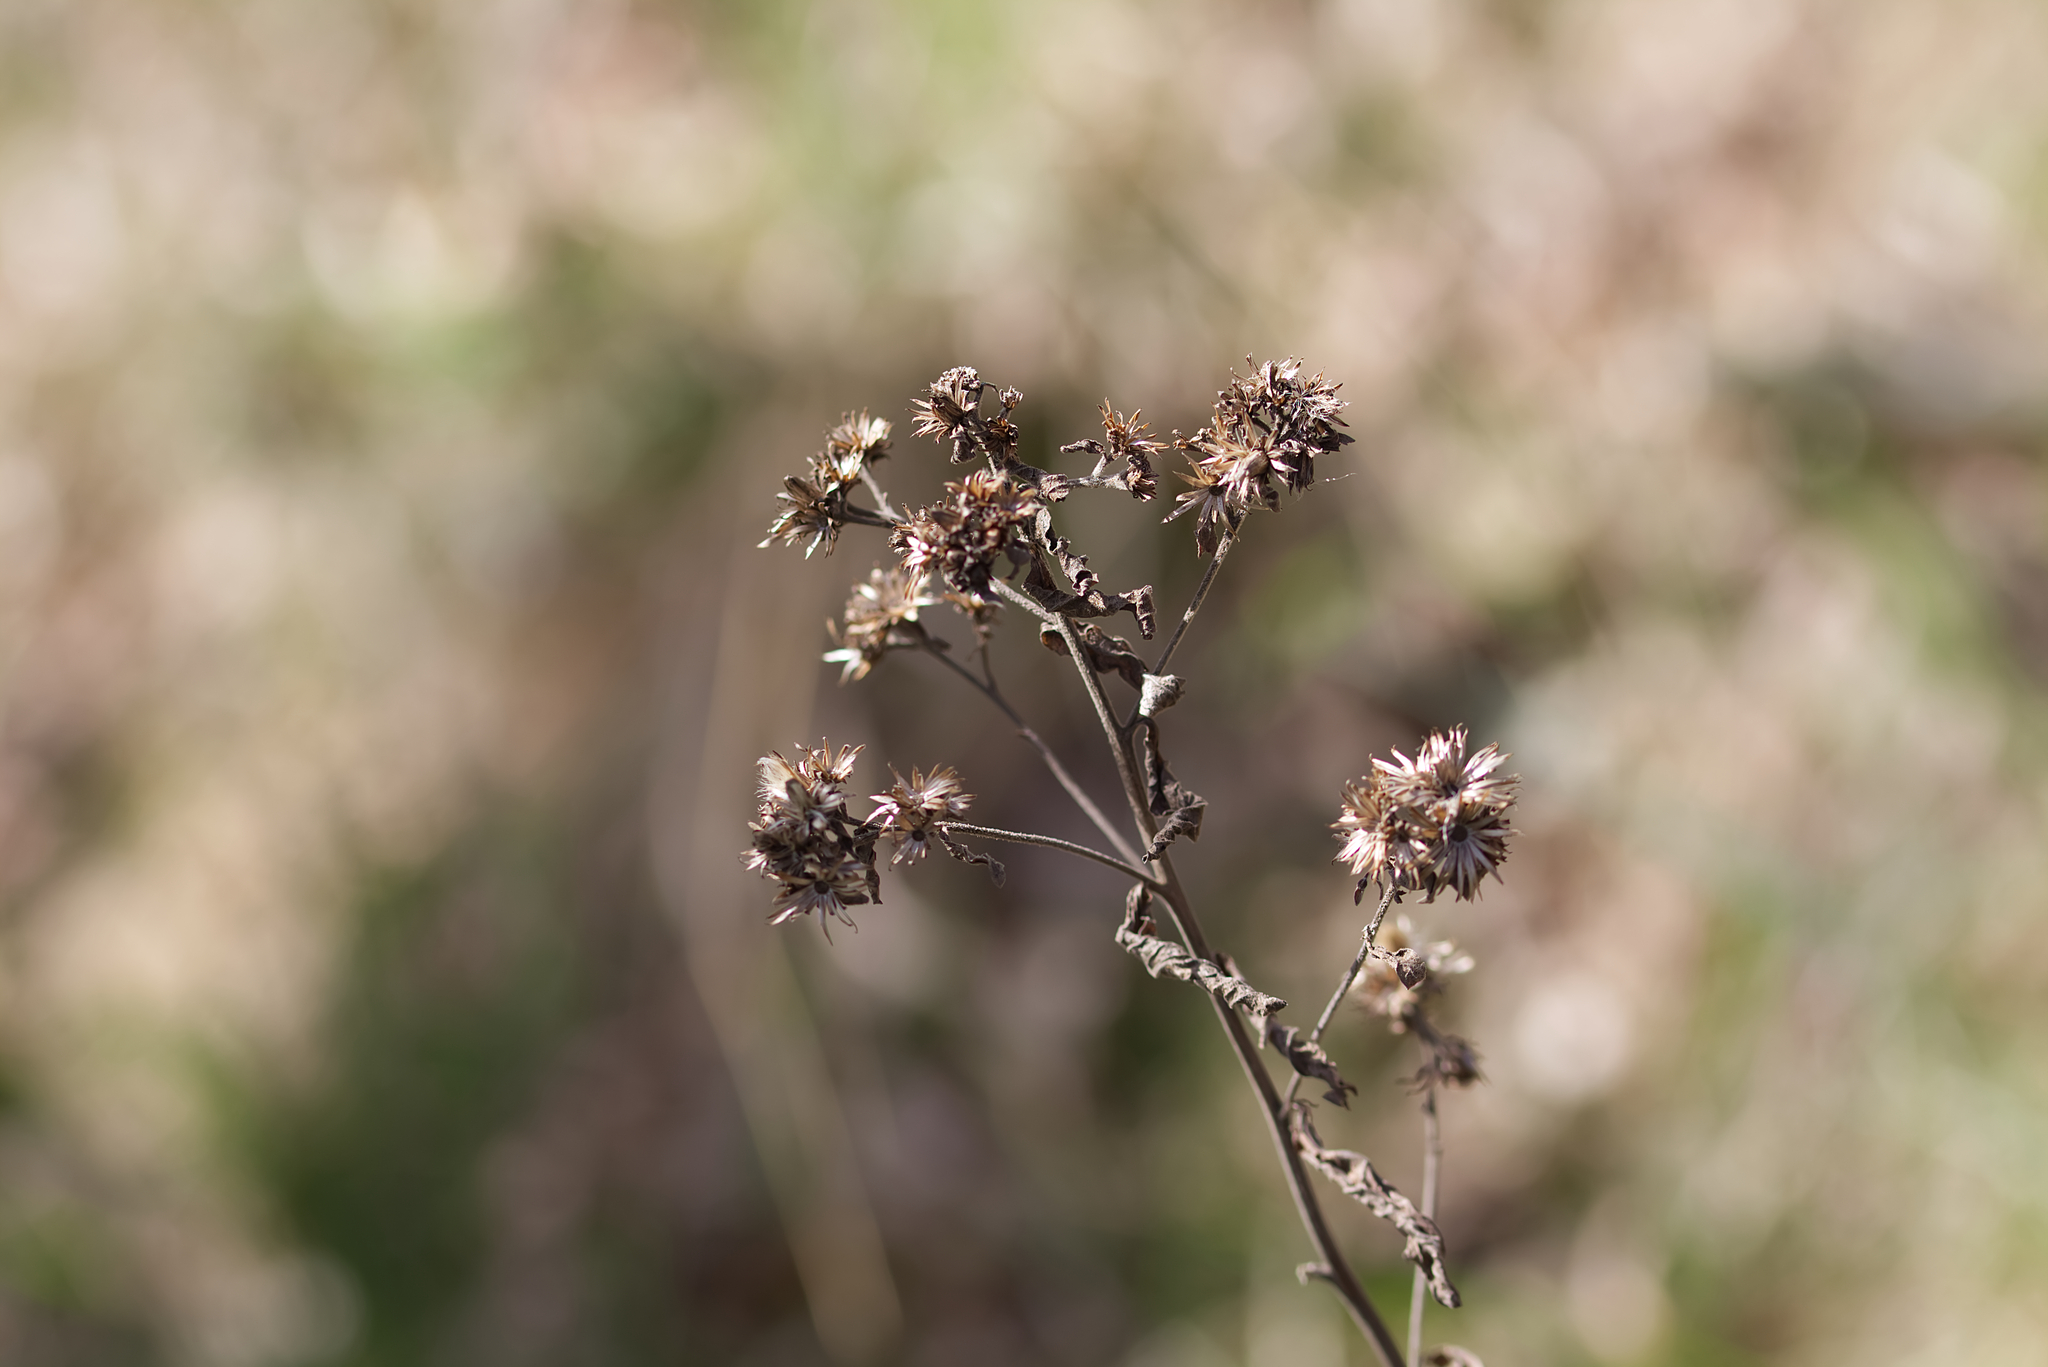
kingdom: Plantae
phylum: Tracheophyta
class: Magnoliopsida
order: Asterales
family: Asteraceae
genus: Pentanema
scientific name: Pentanema squarrosum
